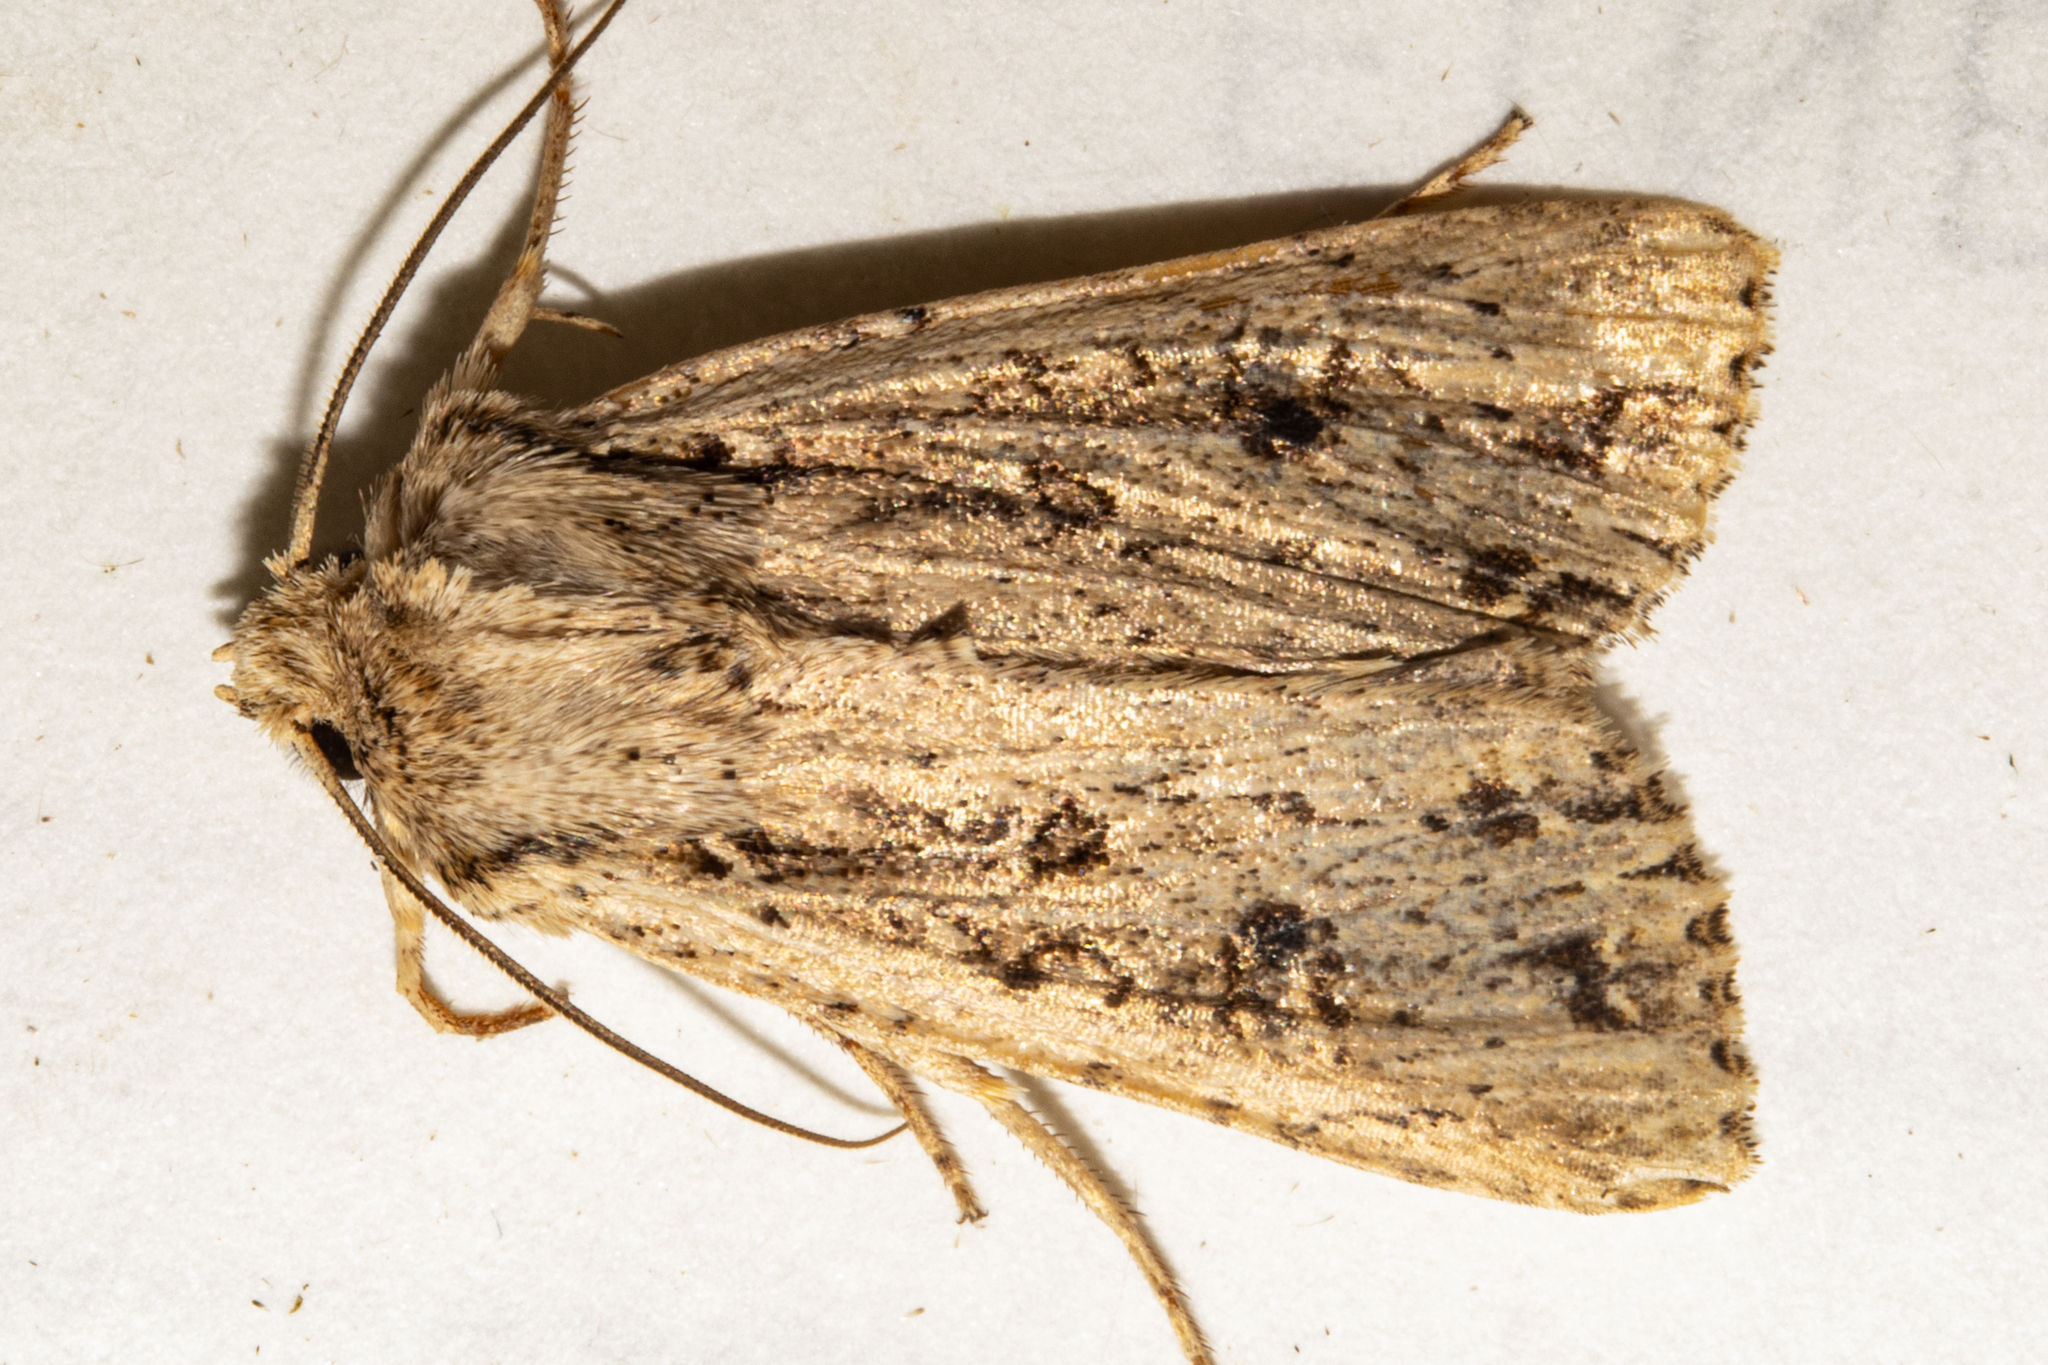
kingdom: Animalia
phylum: Arthropoda
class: Insecta
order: Lepidoptera
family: Noctuidae
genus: Ichneutica
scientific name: Ichneutica lignana
